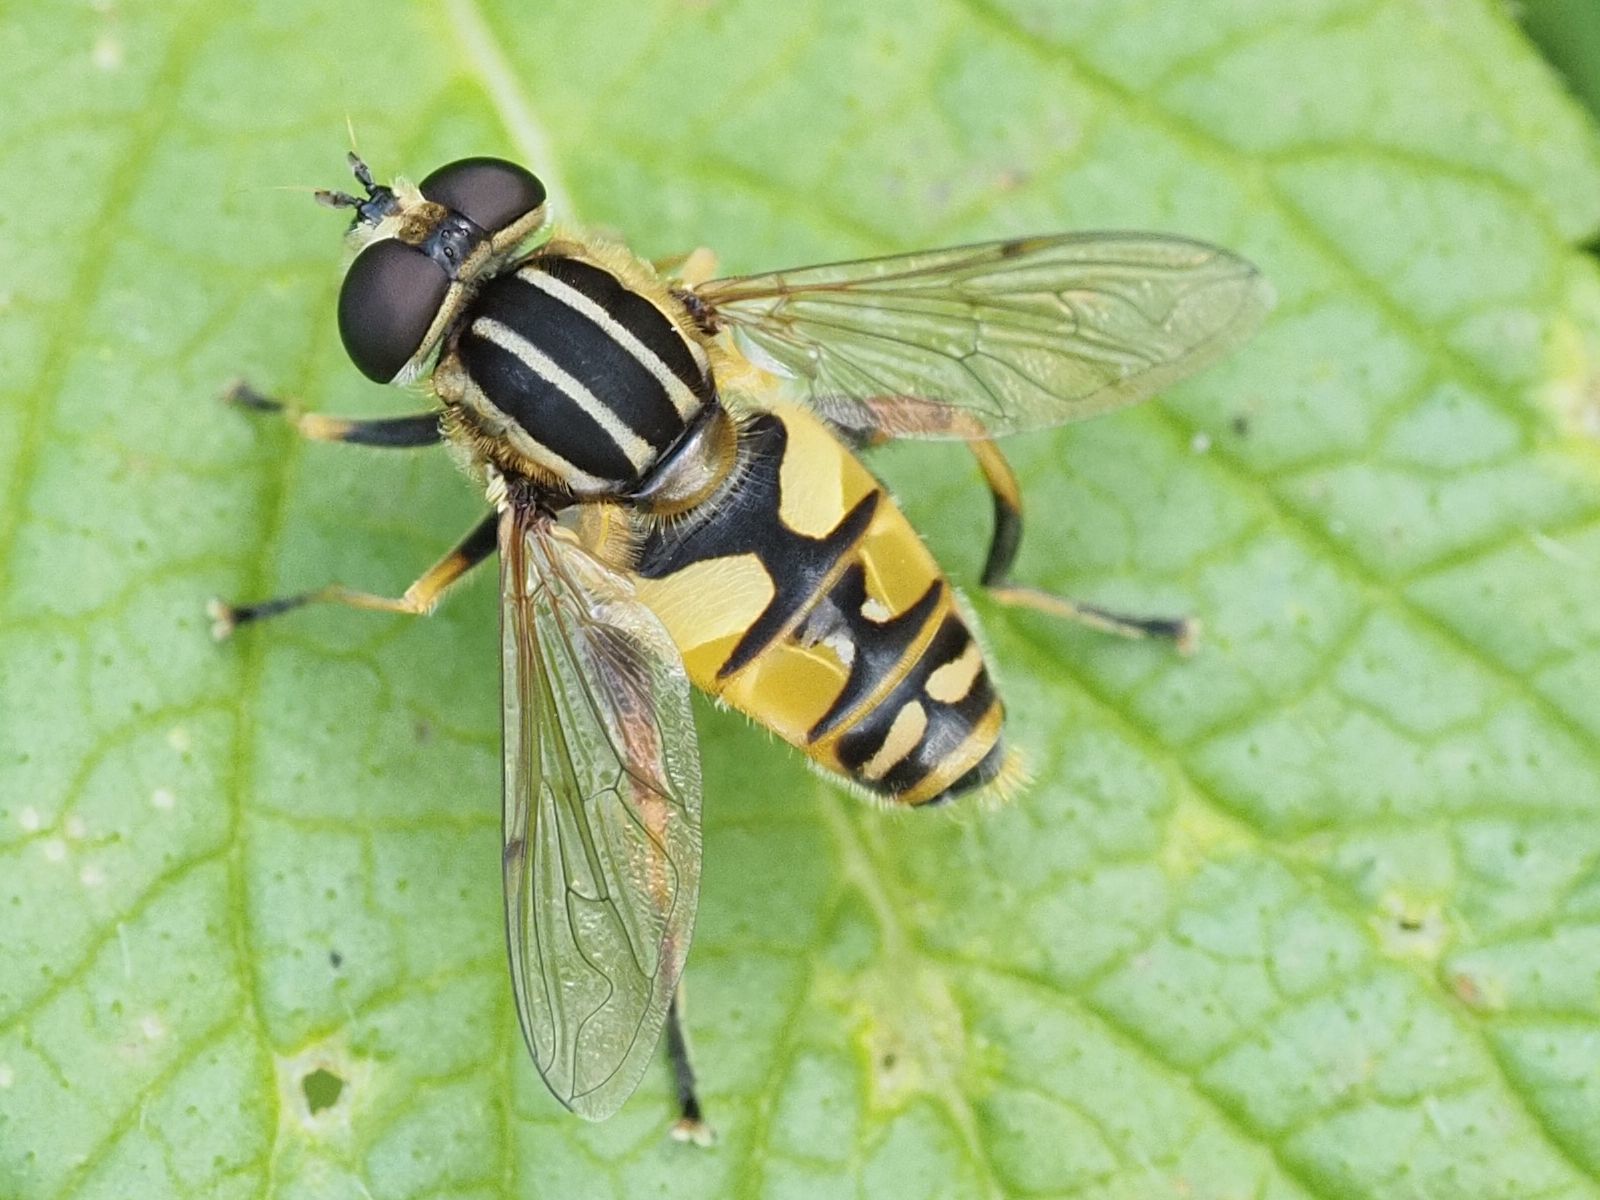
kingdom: Animalia
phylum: Arthropoda
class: Insecta
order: Diptera
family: Syrphidae
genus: Helophilus
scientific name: Helophilus pendulus
